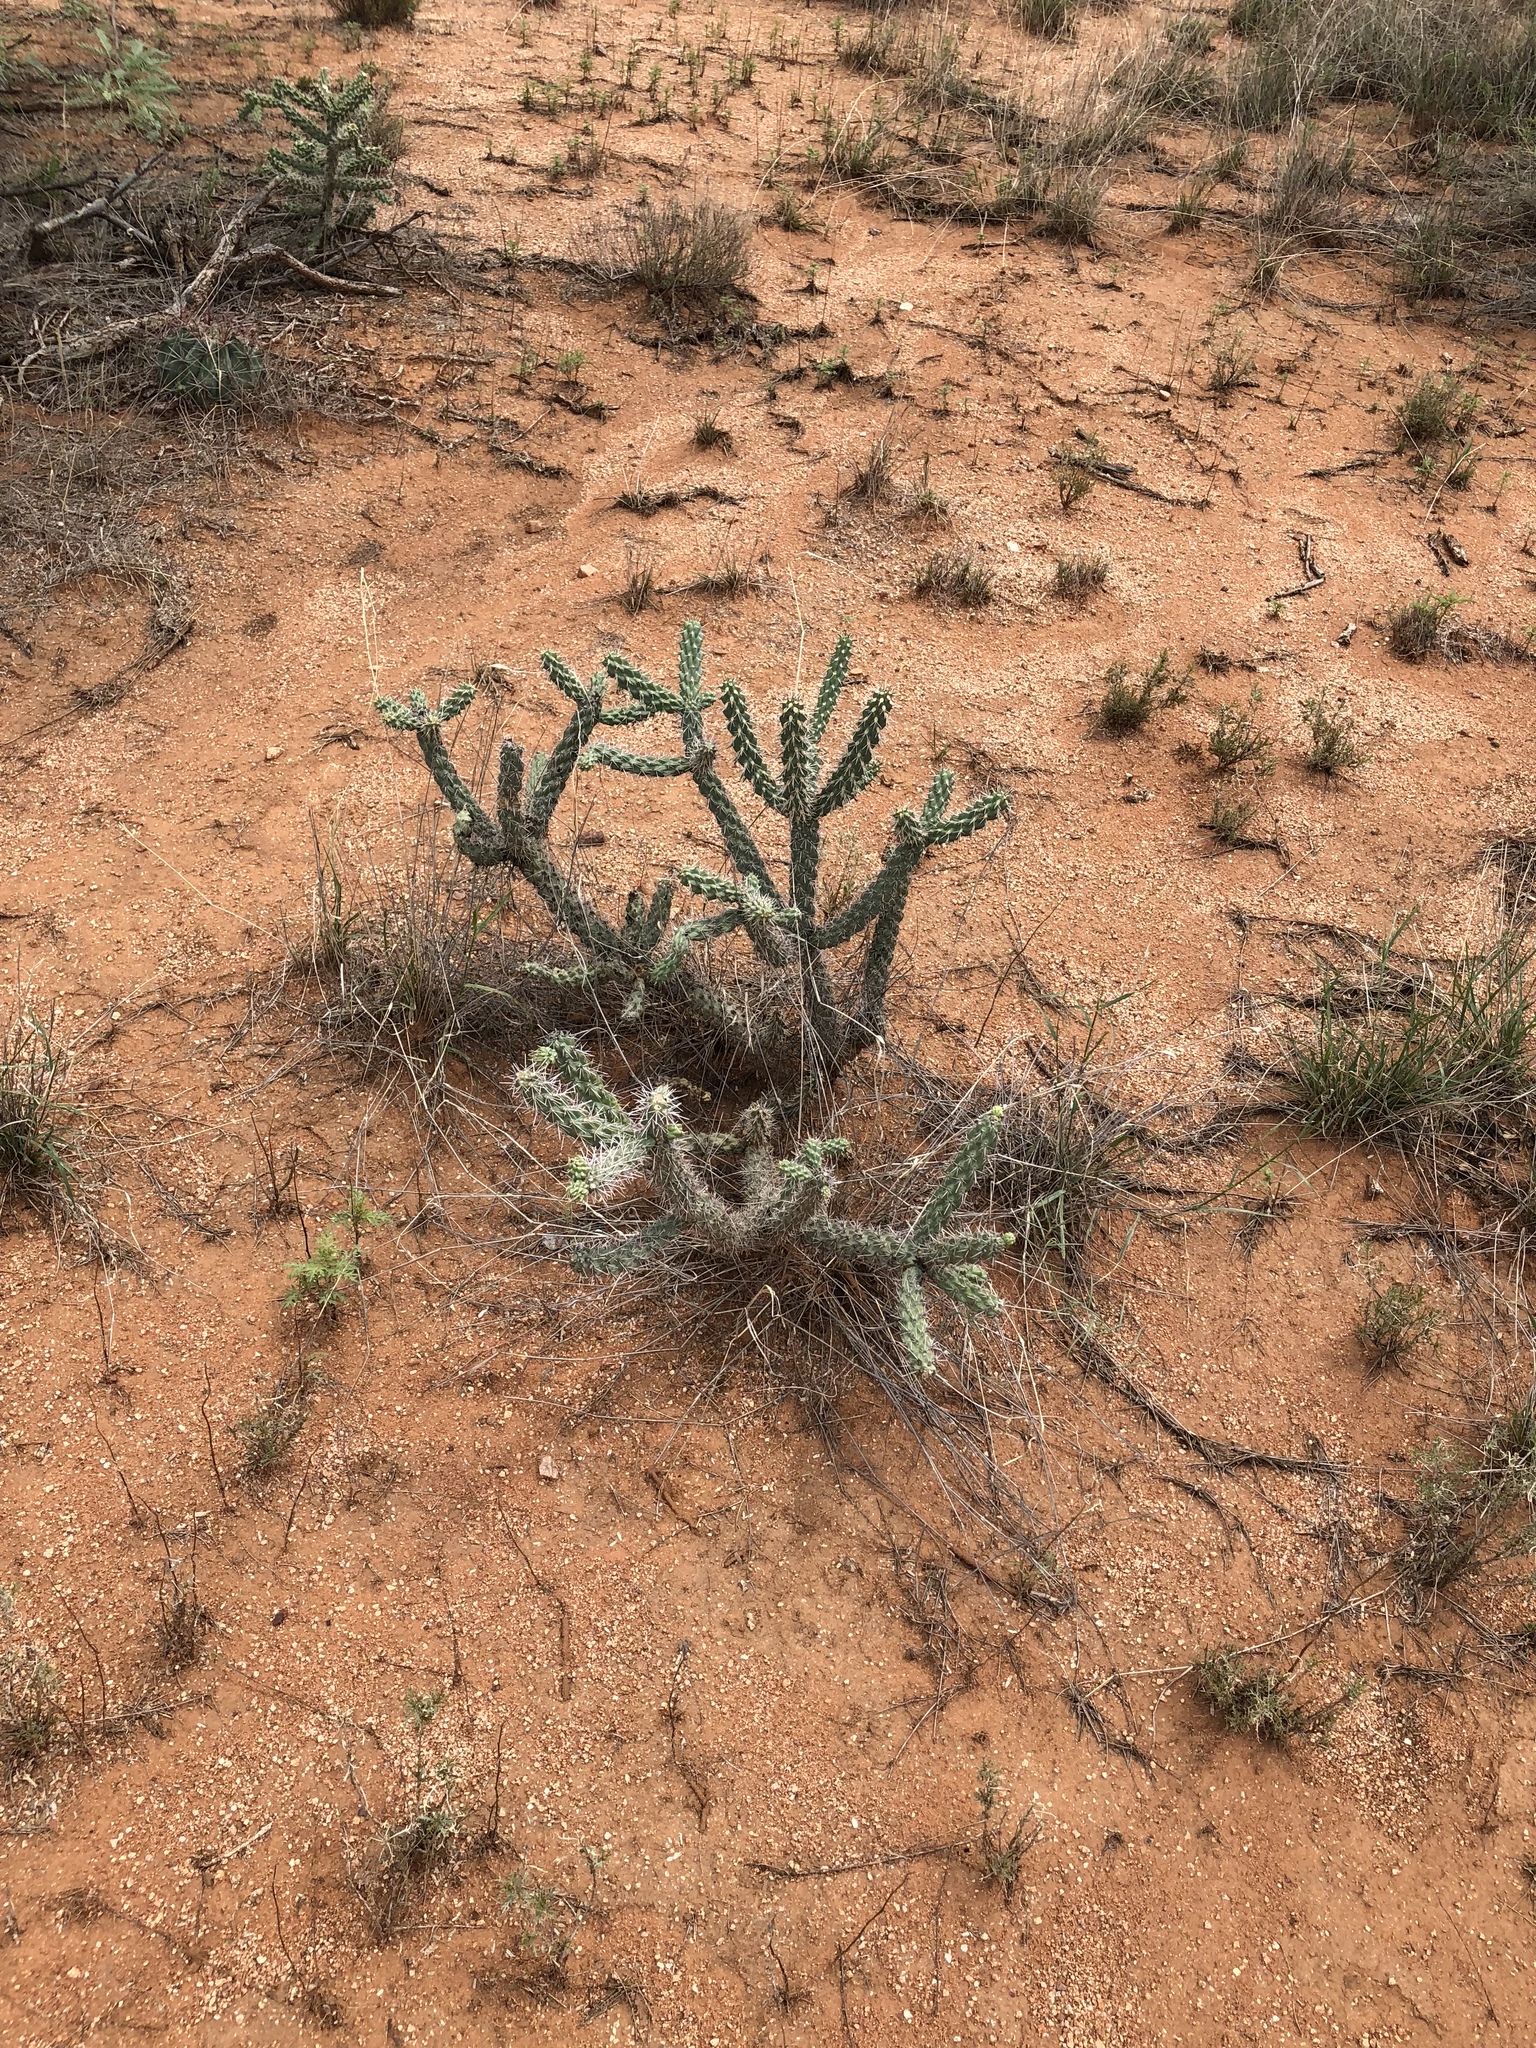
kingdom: Plantae
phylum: Tracheophyta
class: Magnoliopsida
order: Caryophyllales
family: Cactaceae
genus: Cylindropuntia
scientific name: Cylindropuntia imbricata
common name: Candelabrum cactus
